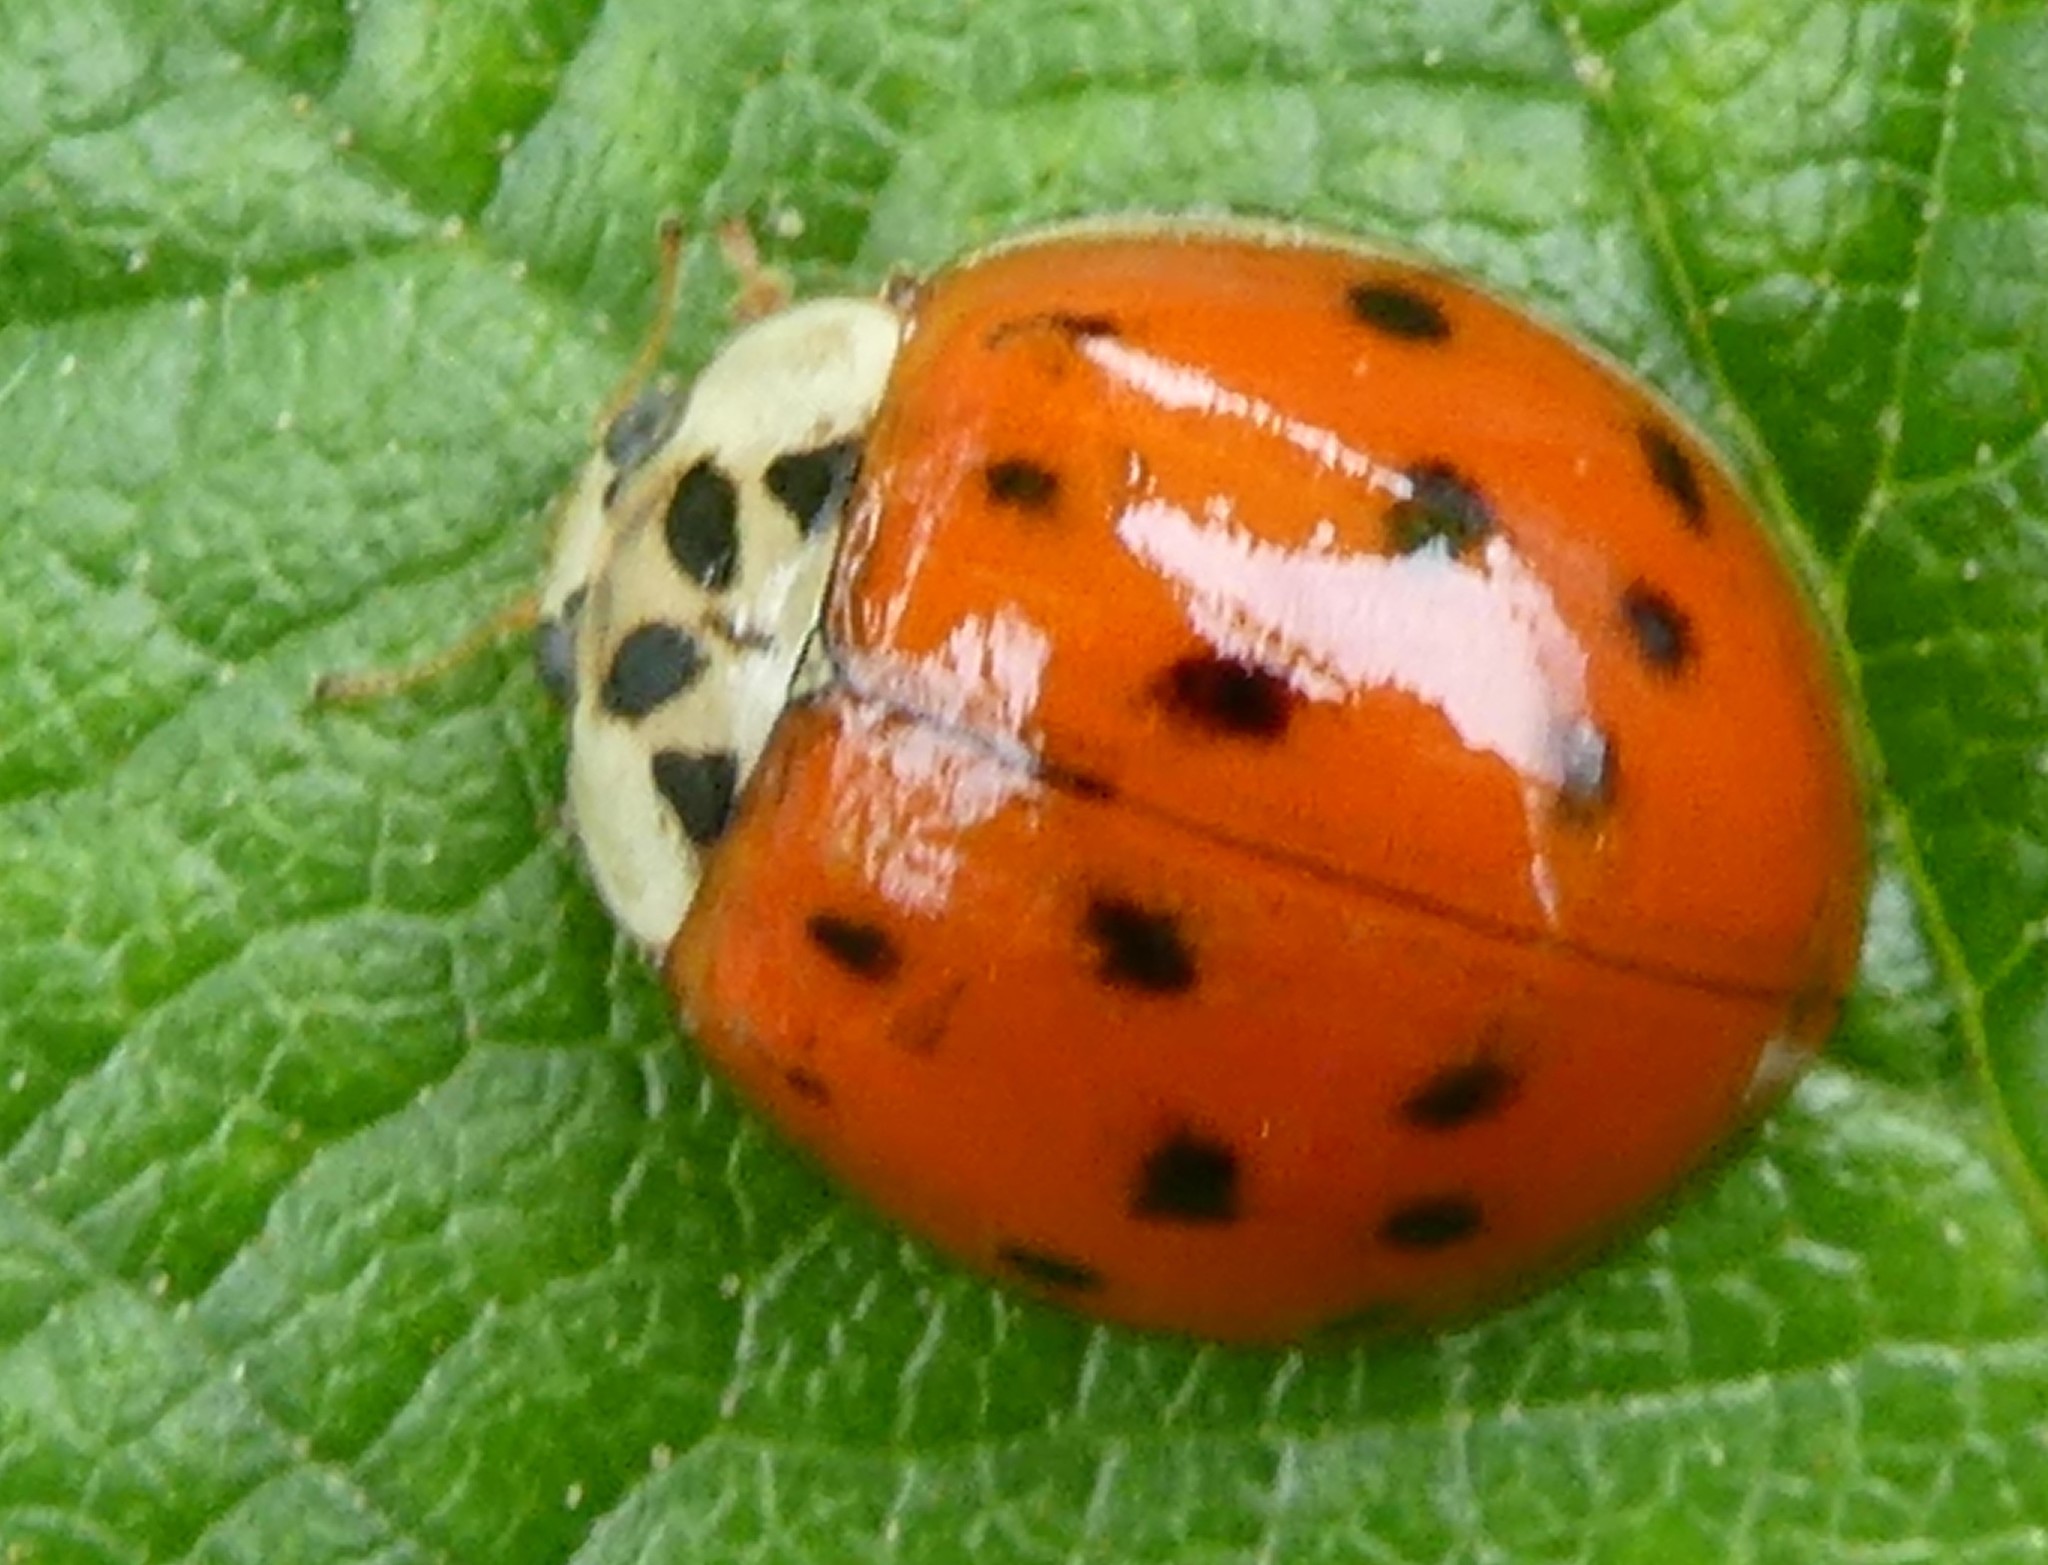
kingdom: Animalia
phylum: Arthropoda
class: Insecta
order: Coleoptera
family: Coccinellidae
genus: Harmonia
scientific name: Harmonia axyridis
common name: Harlequin ladybird
